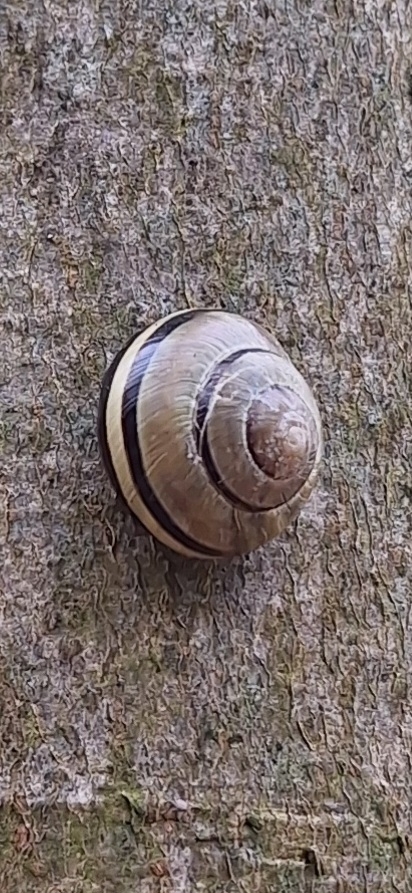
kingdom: Animalia
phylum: Mollusca
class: Gastropoda
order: Stylommatophora
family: Helicidae
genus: Cepaea
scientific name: Cepaea nemoralis
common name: Grovesnail
